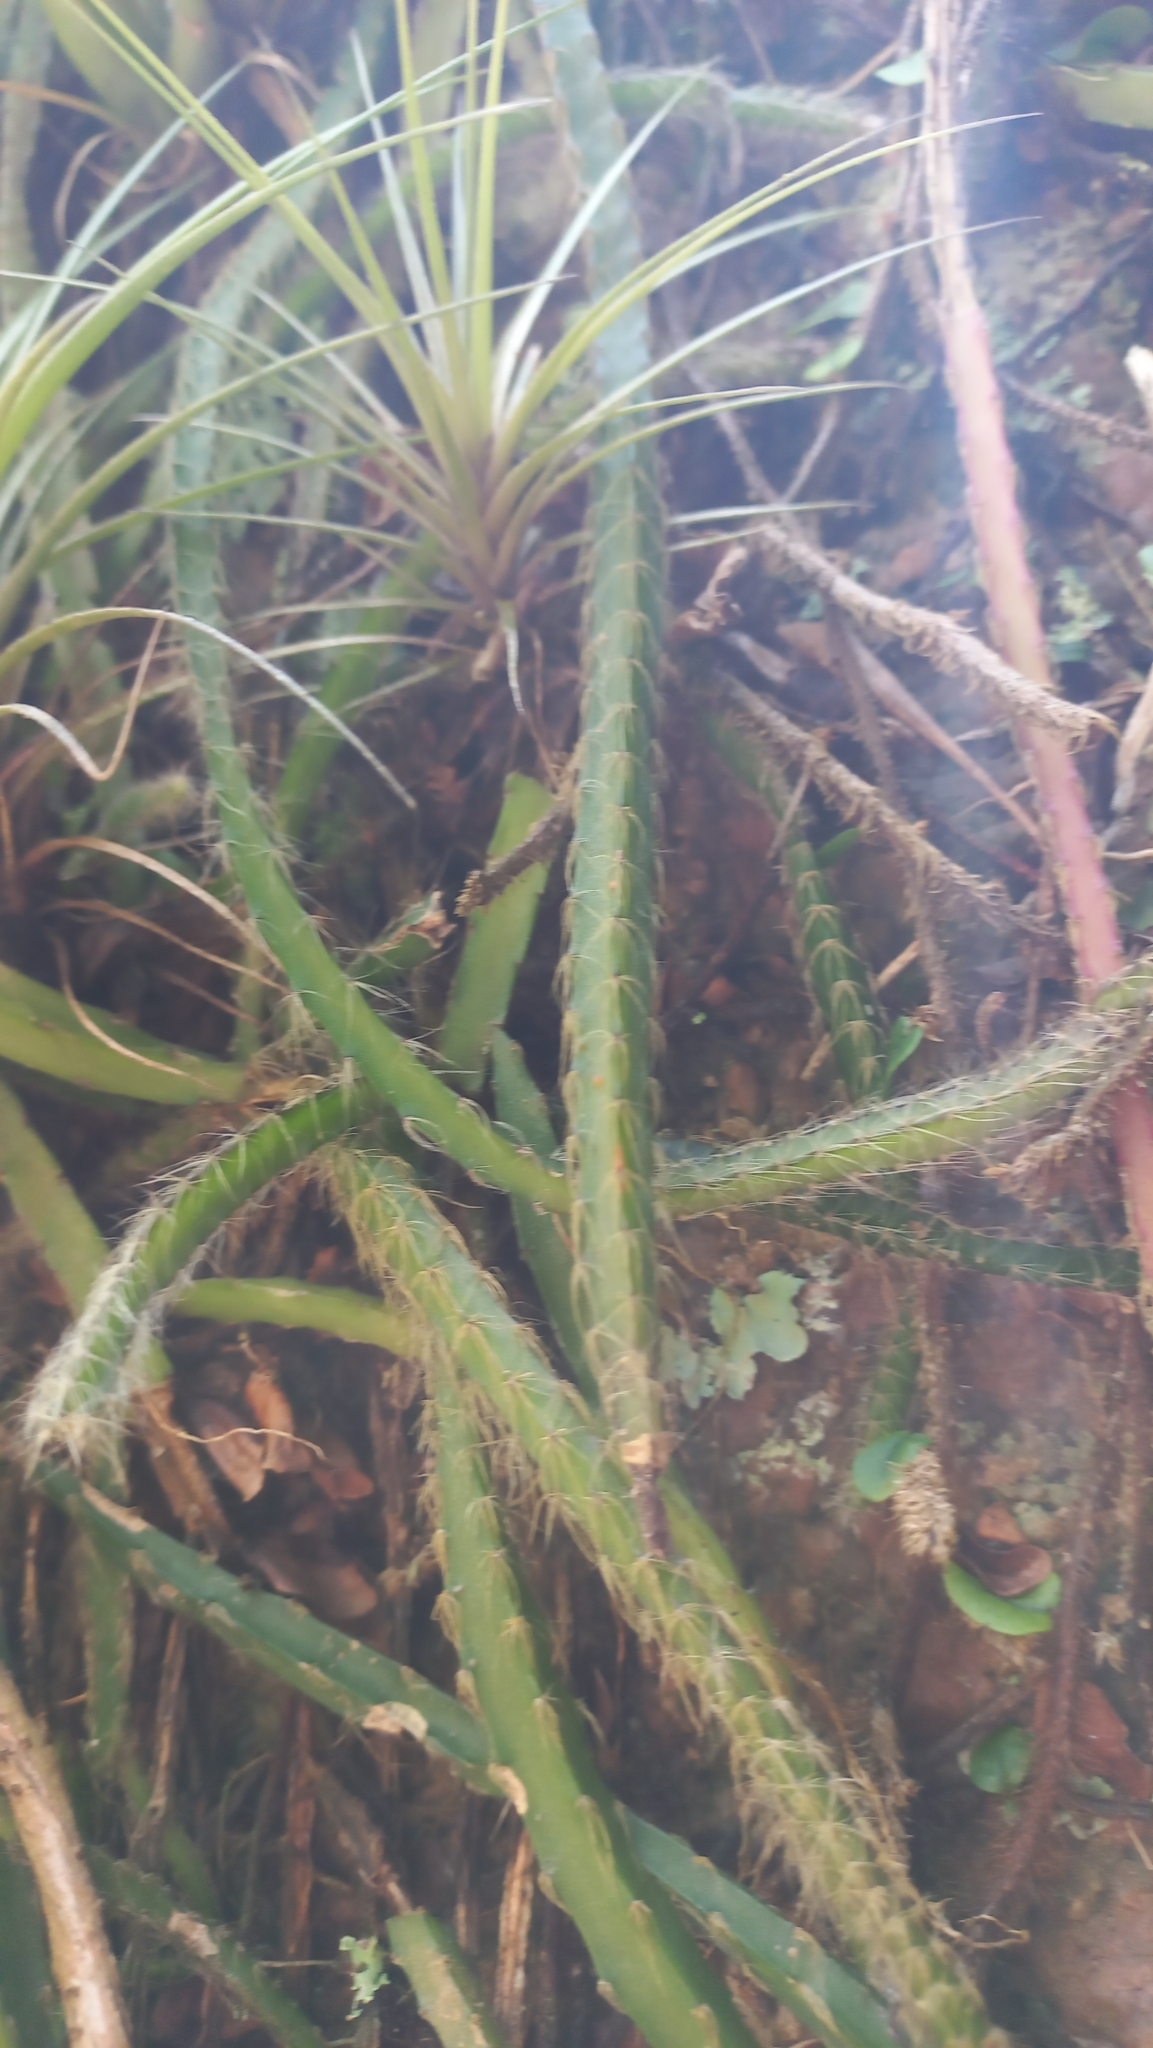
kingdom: Plantae
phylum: Tracheophyta
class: Magnoliopsida
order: Caryophyllales
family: Cactaceae
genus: Lepismium
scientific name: Lepismium cruciforme
